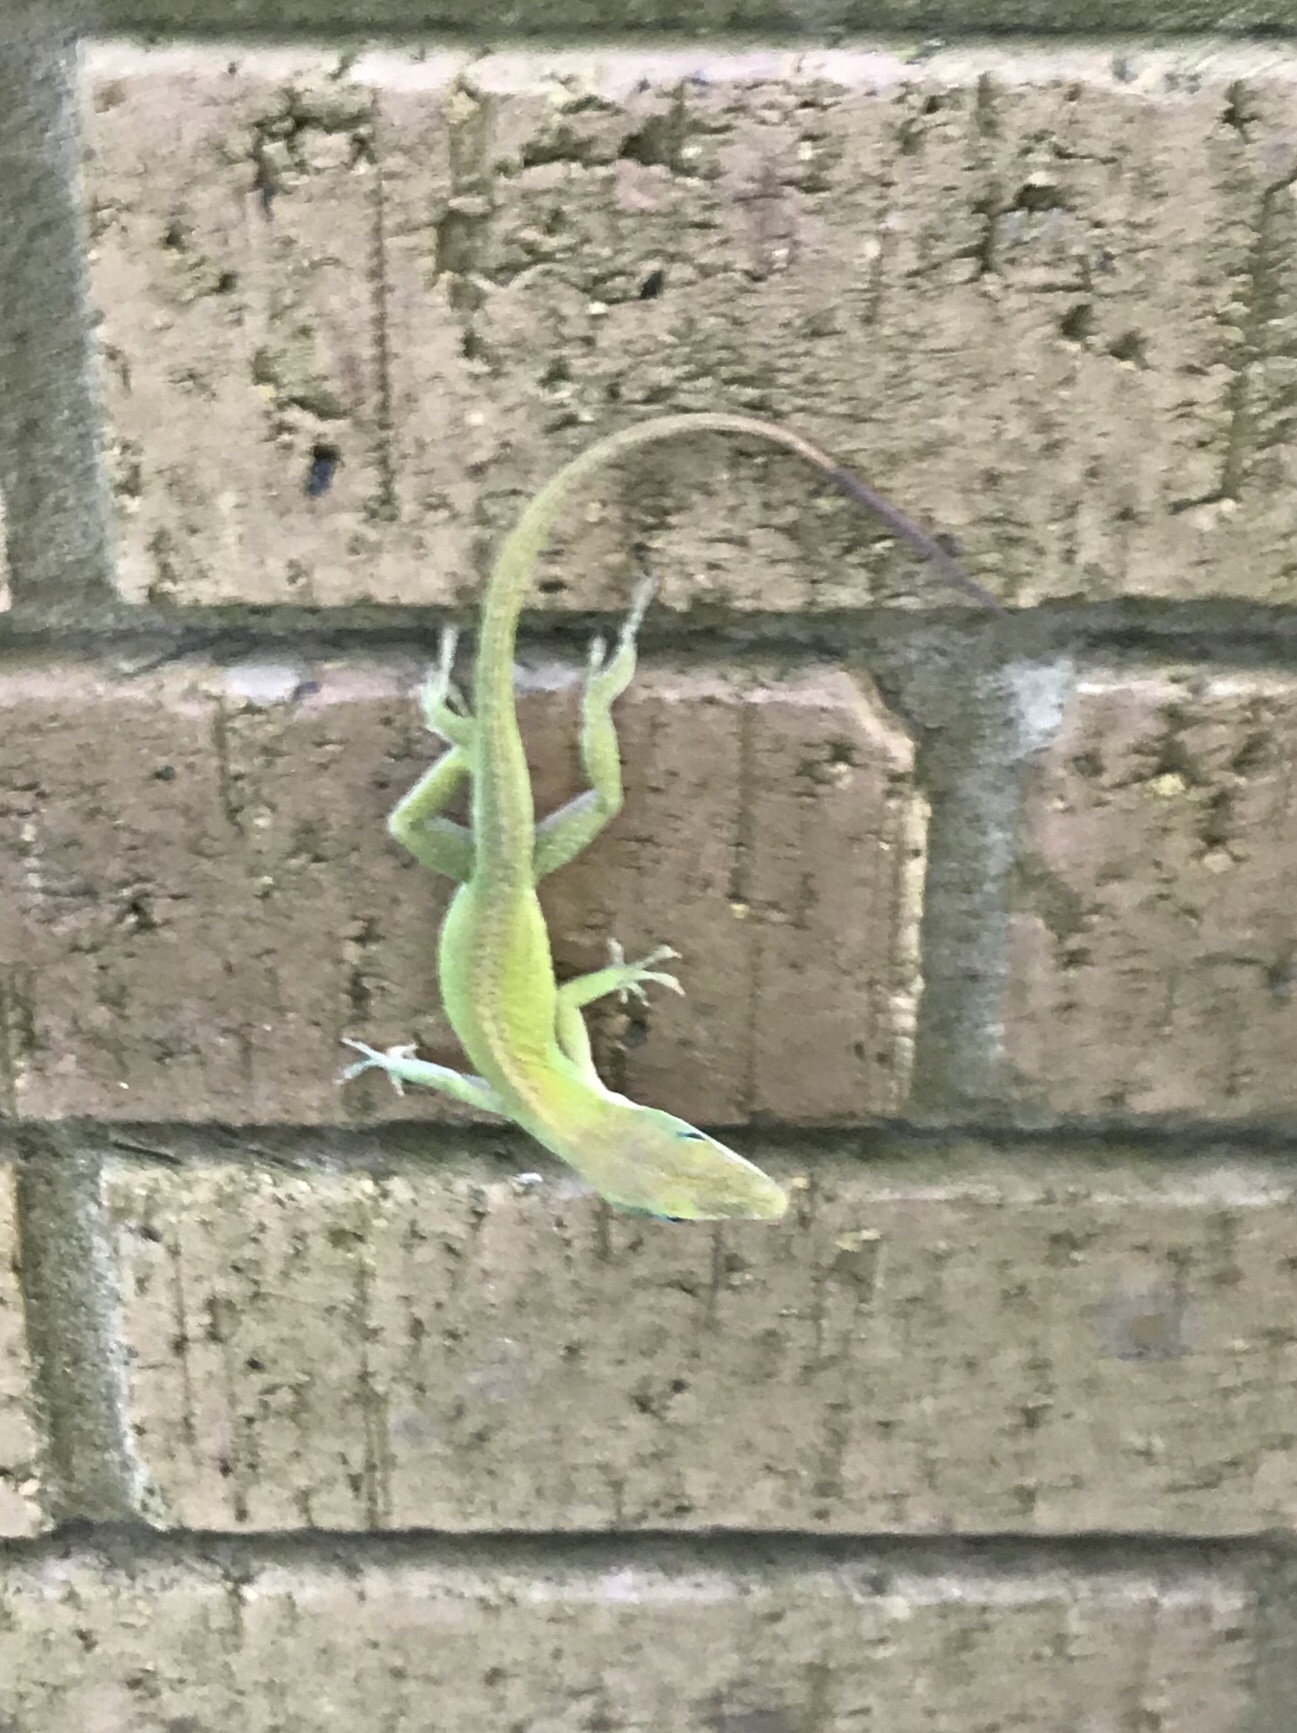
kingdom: Animalia
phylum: Chordata
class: Squamata
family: Dactyloidae
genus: Anolis
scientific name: Anolis carolinensis
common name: Green anole
